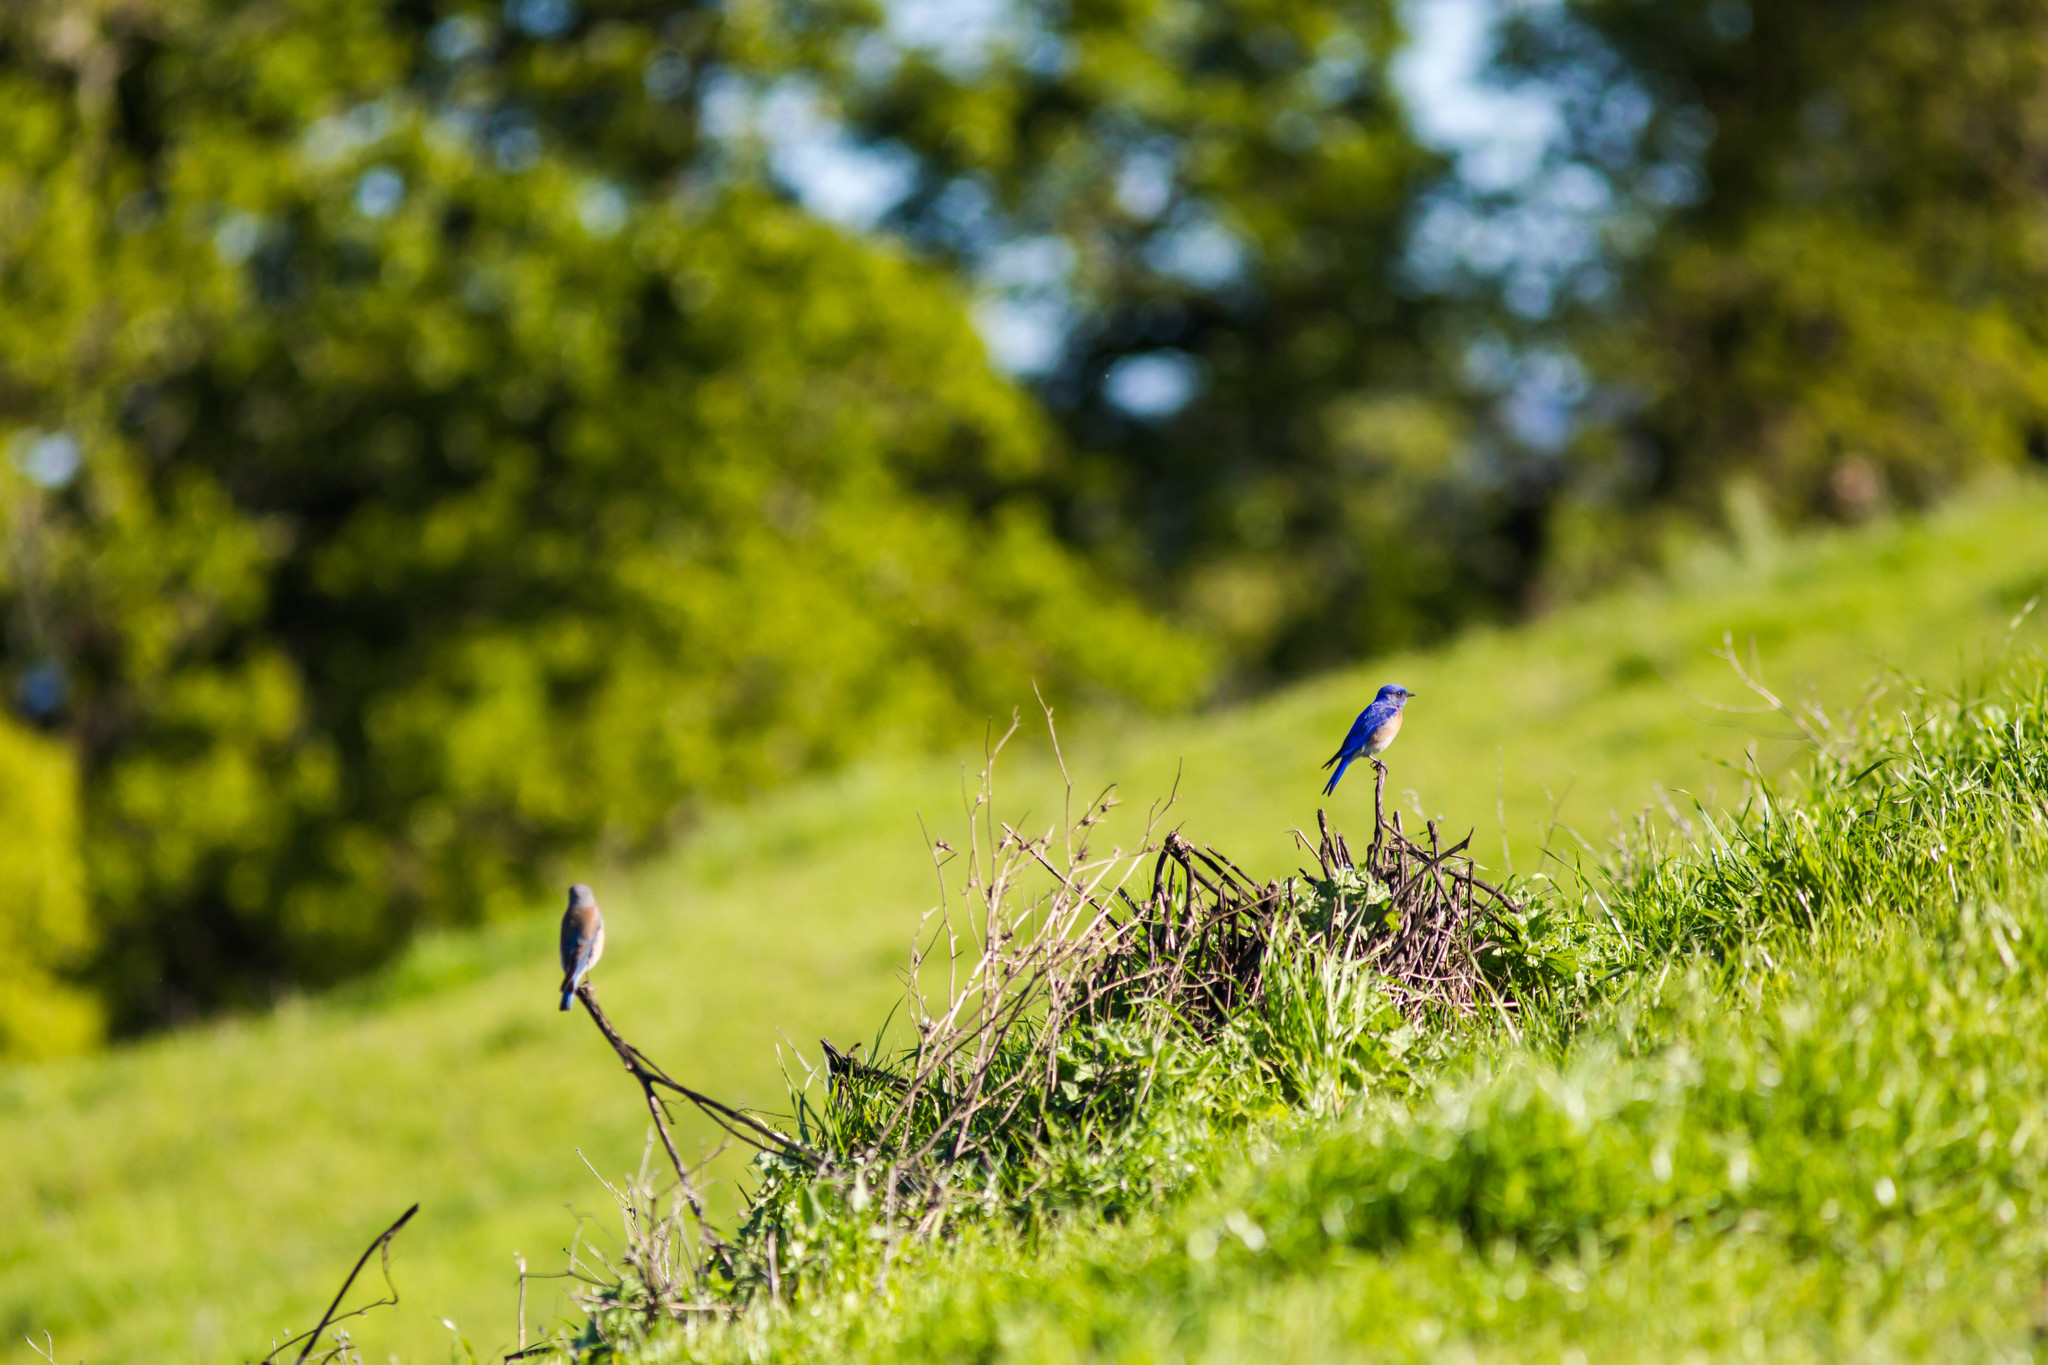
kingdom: Animalia
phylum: Chordata
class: Aves
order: Passeriformes
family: Turdidae
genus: Sialia
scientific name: Sialia mexicana
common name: Western bluebird
